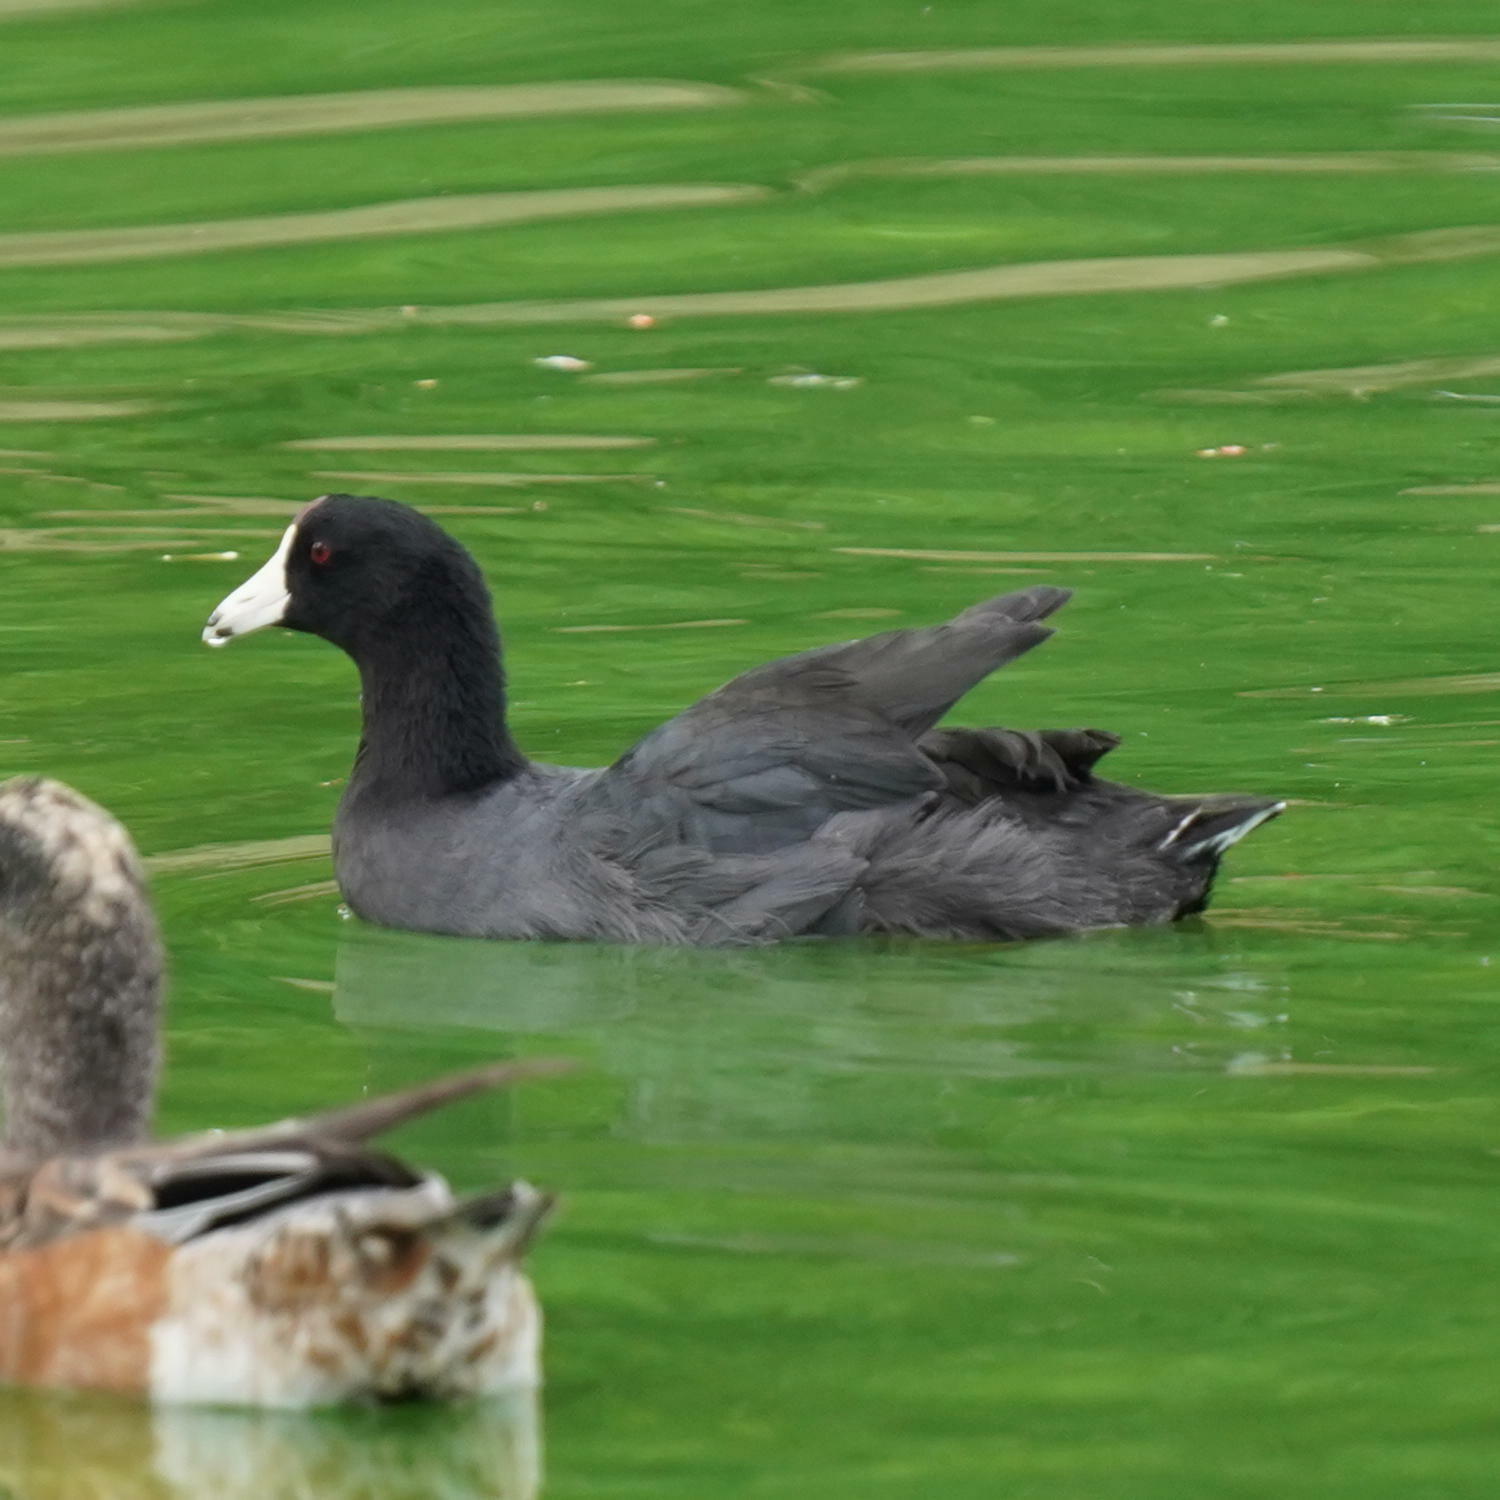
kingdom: Animalia
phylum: Chordata
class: Aves
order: Gruiformes
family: Rallidae
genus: Fulica
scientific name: Fulica americana
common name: American coot
